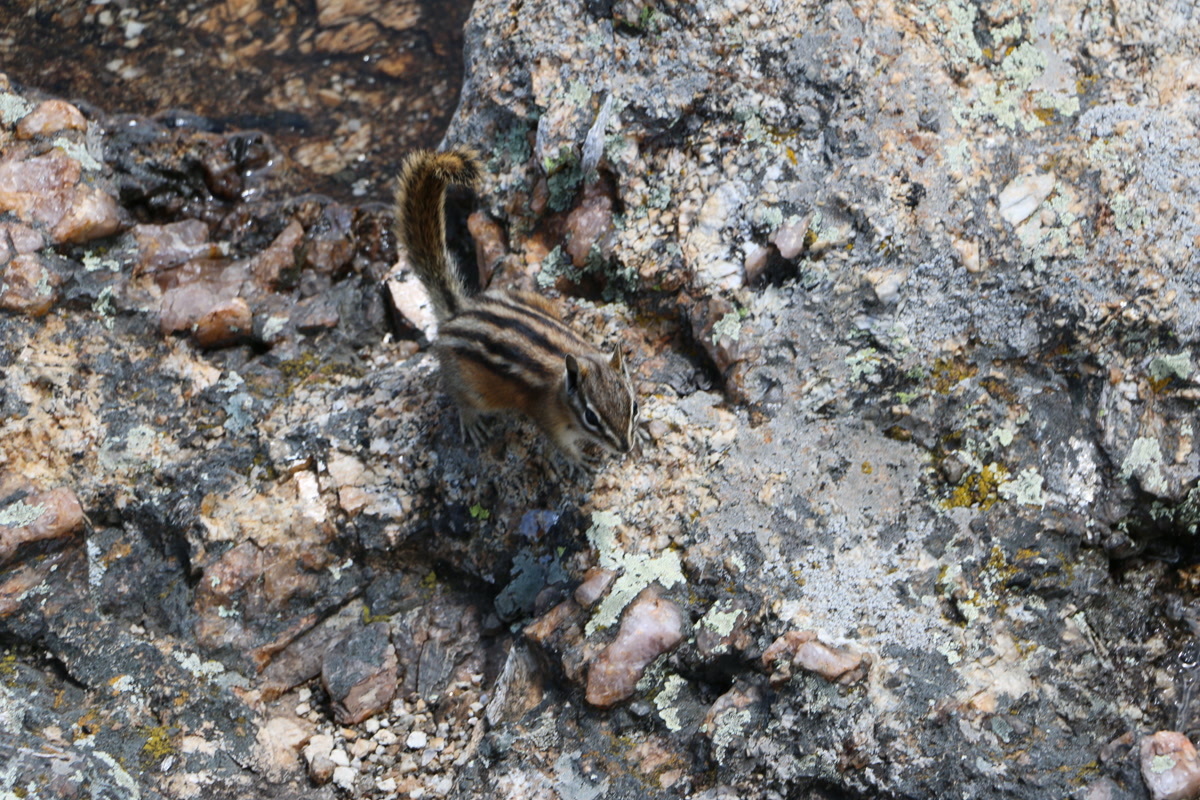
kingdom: Animalia
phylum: Chordata
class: Mammalia
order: Rodentia
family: Sciuridae
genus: Tamias
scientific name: Tamias minimus
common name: Least chipmunk
